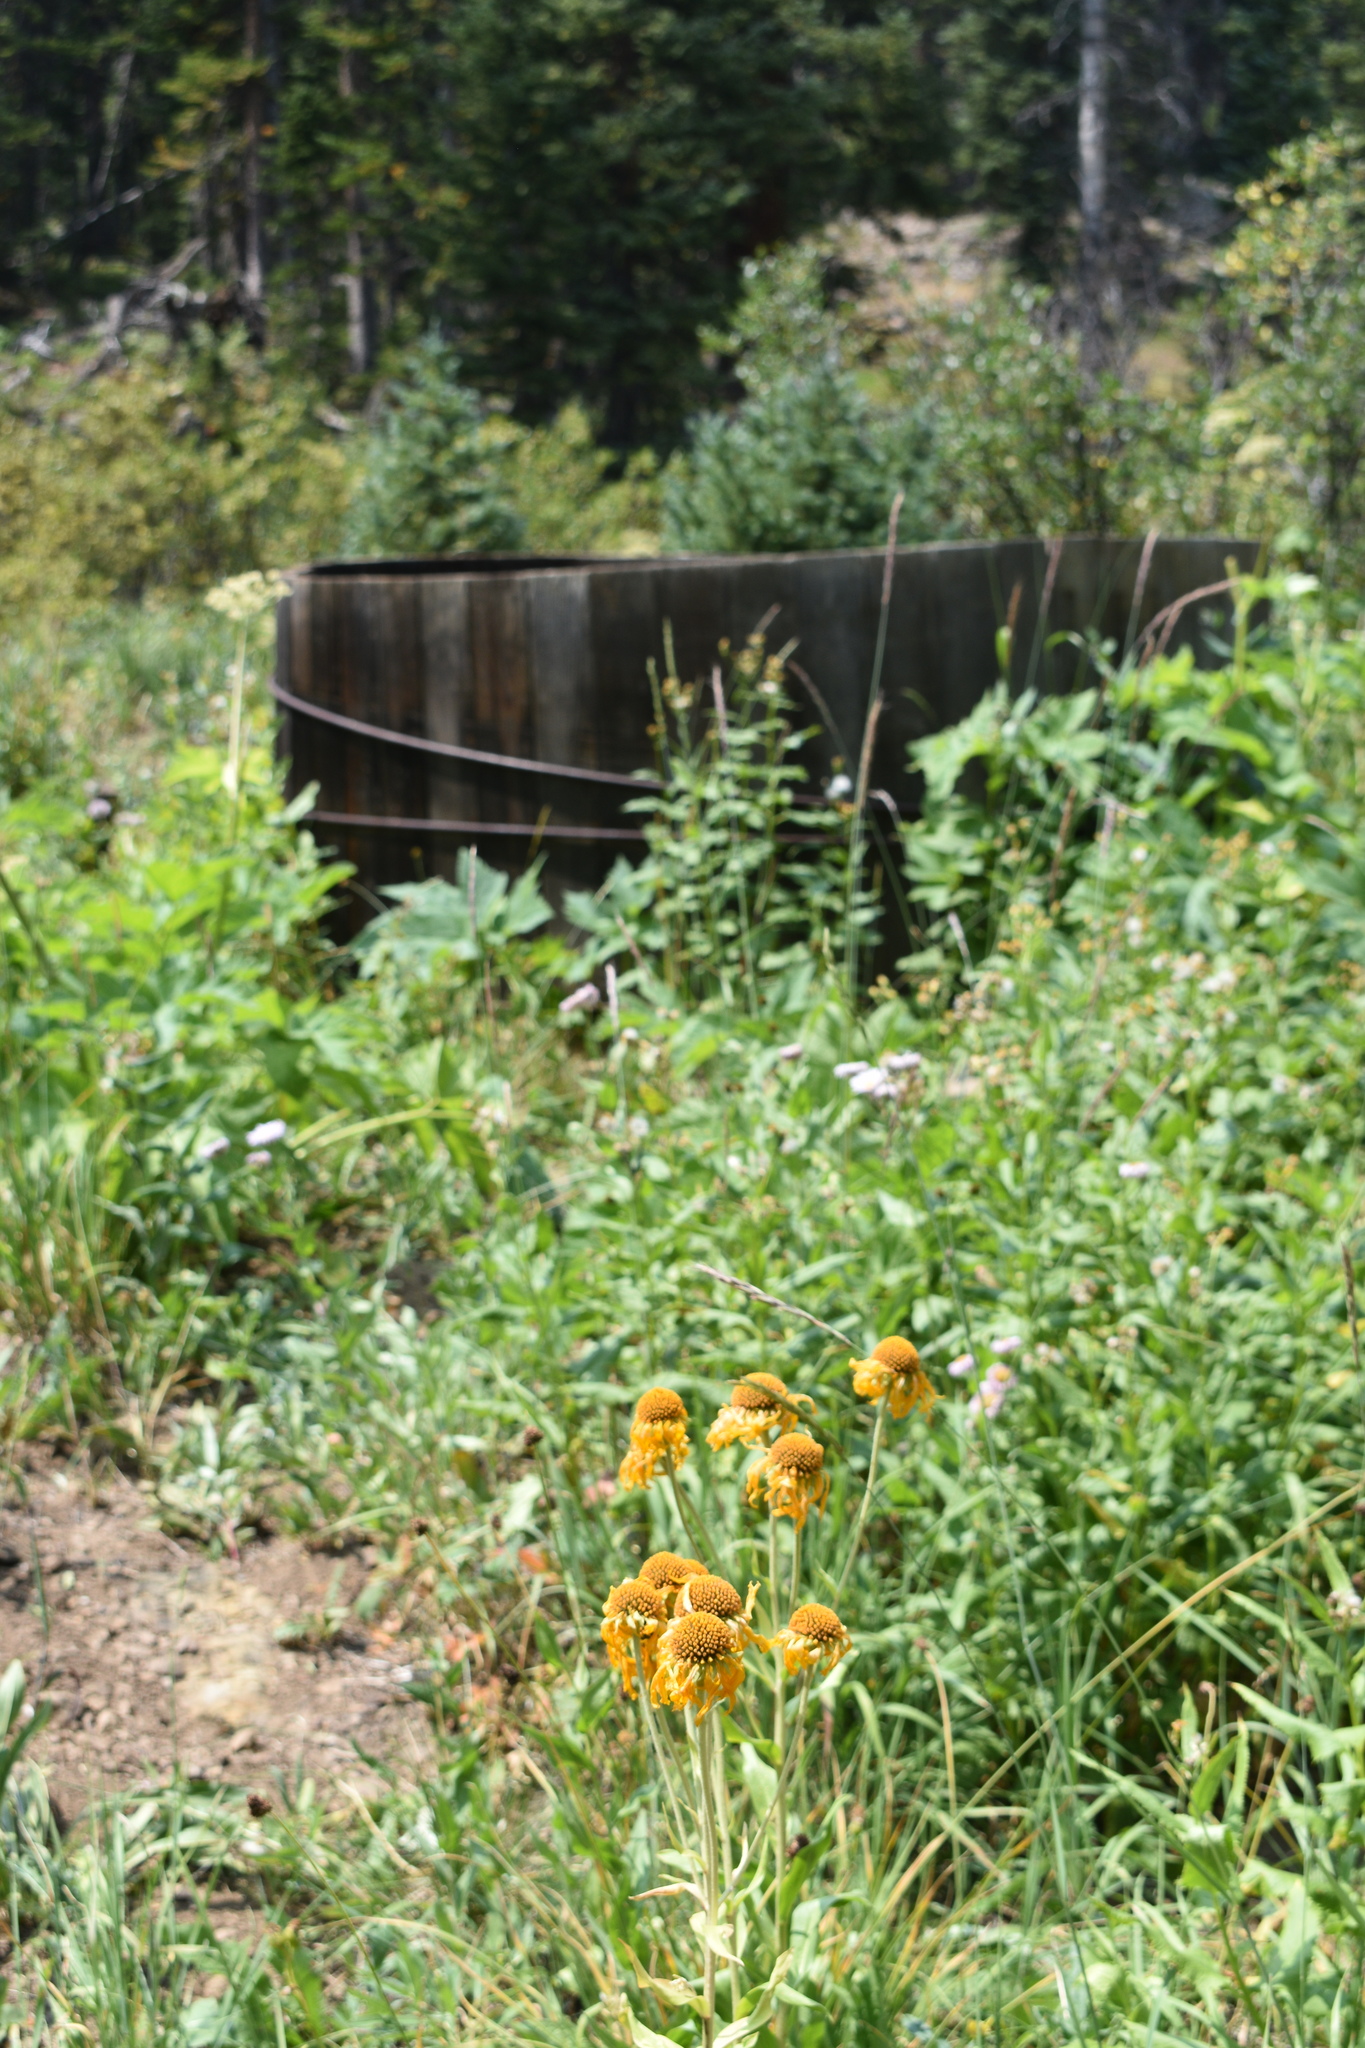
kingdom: Plantae
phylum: Tracheophyta
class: Magnoliopsida
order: Asterales
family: Asteraceae
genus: Hymenoxys
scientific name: Hymenoxys hoopesii
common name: Orange-sneezeweed
